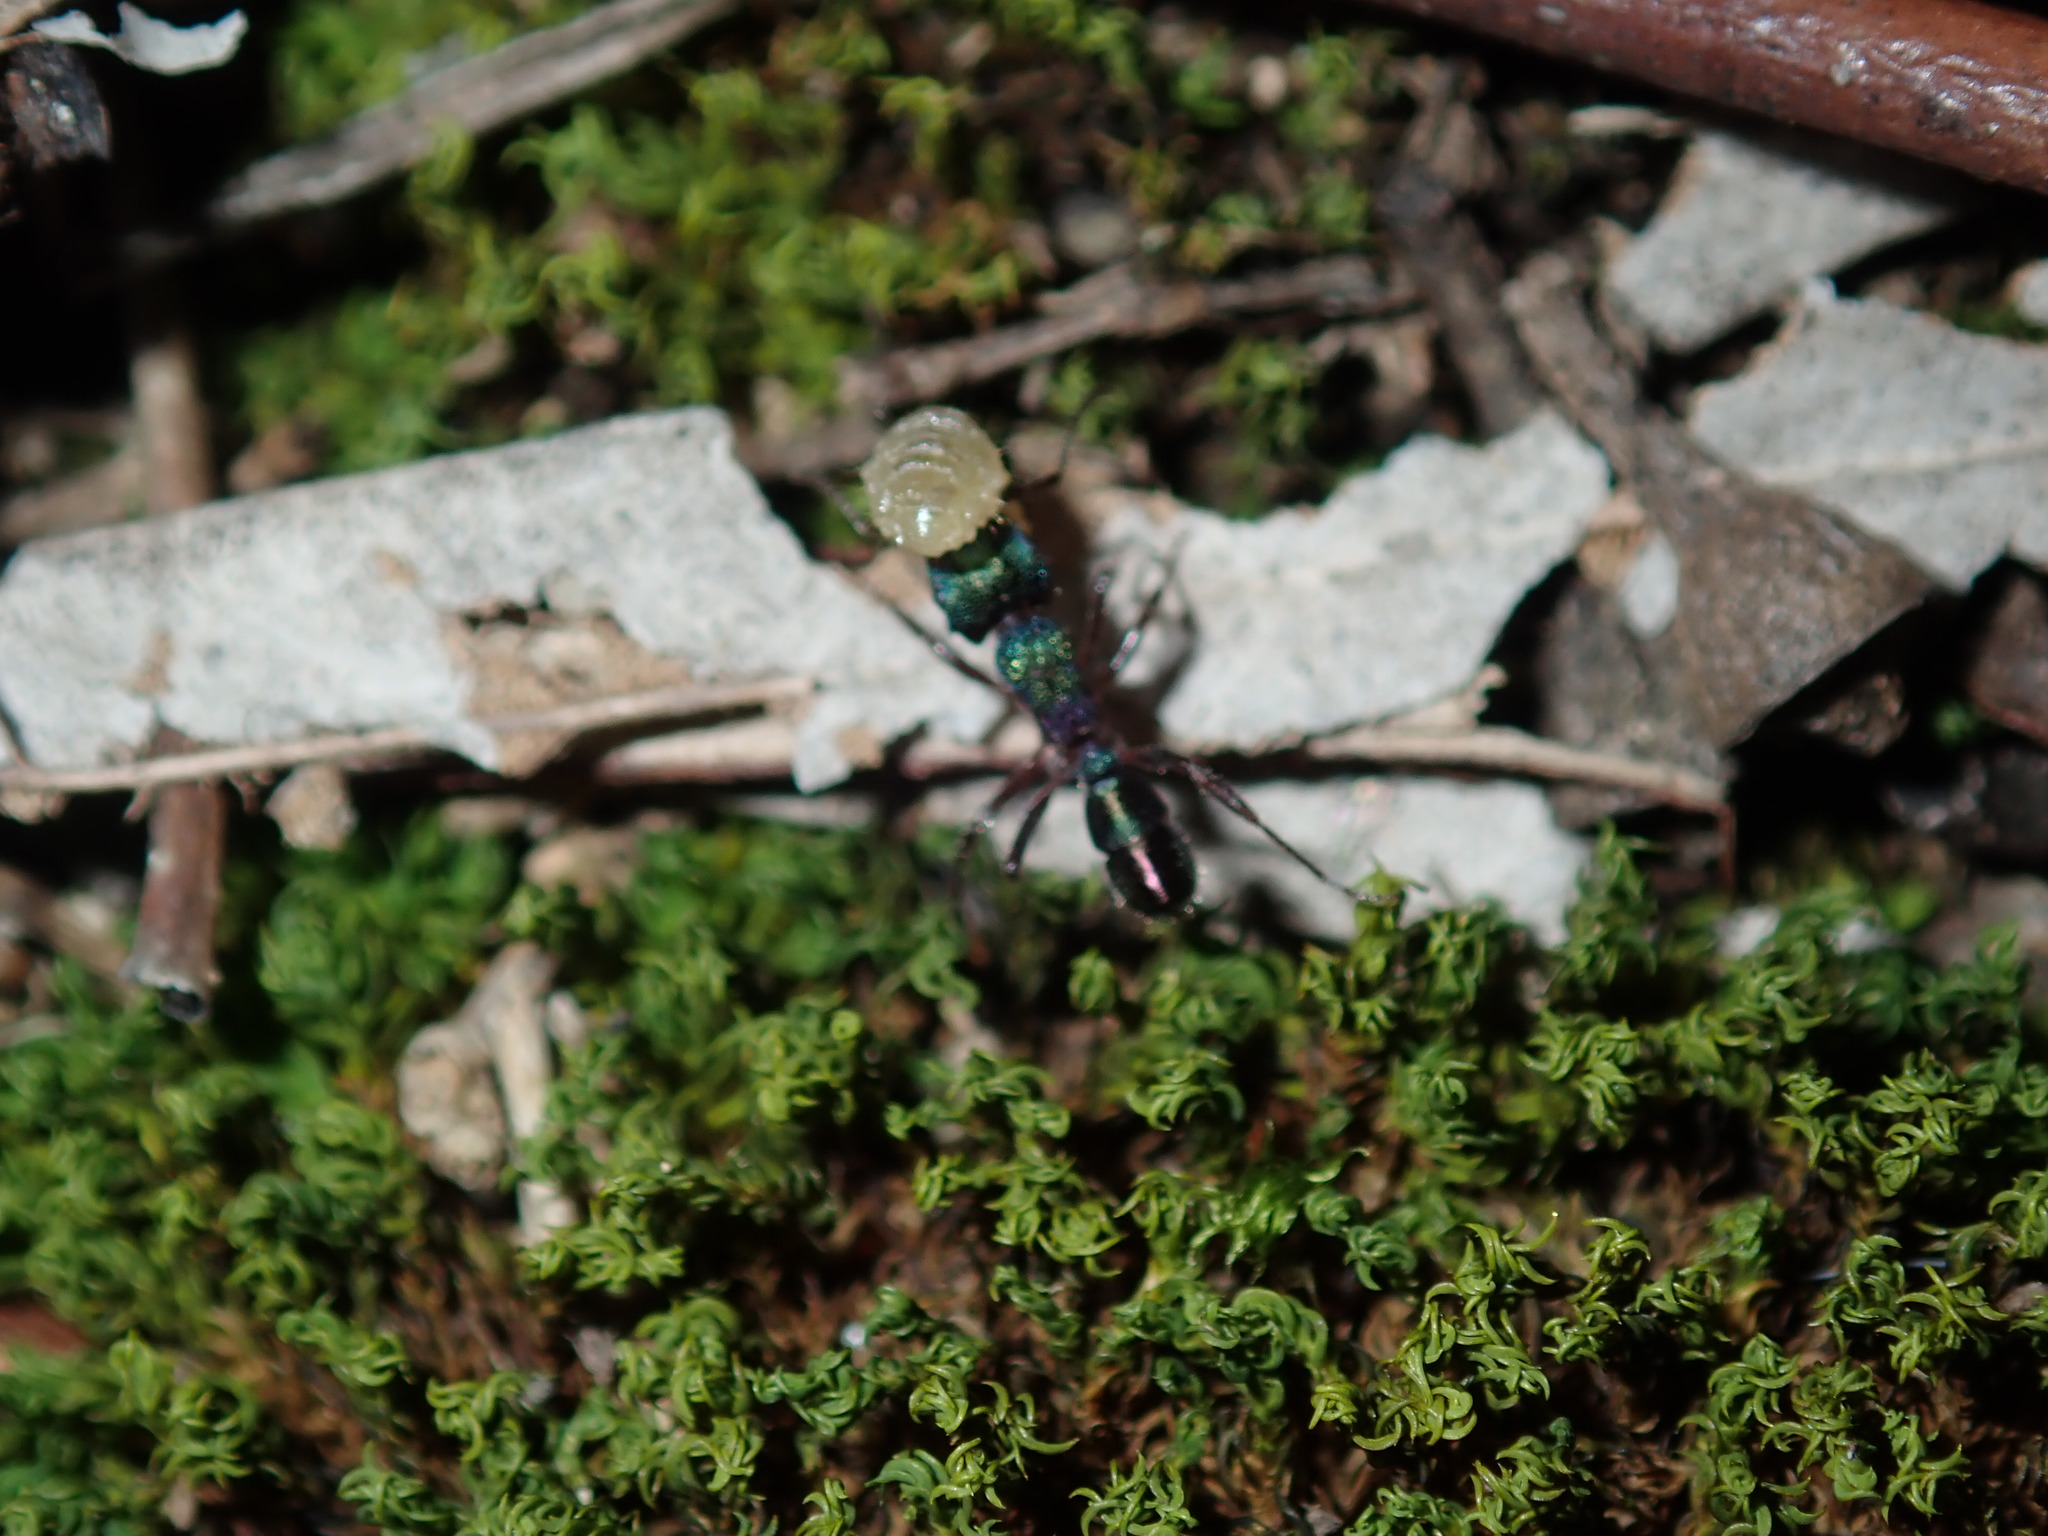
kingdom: Animalia
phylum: Arthropoda
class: Insecta
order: Hymenoptera
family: Formicidae
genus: Rhytidoponera
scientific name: Rhytidoponera metallica
